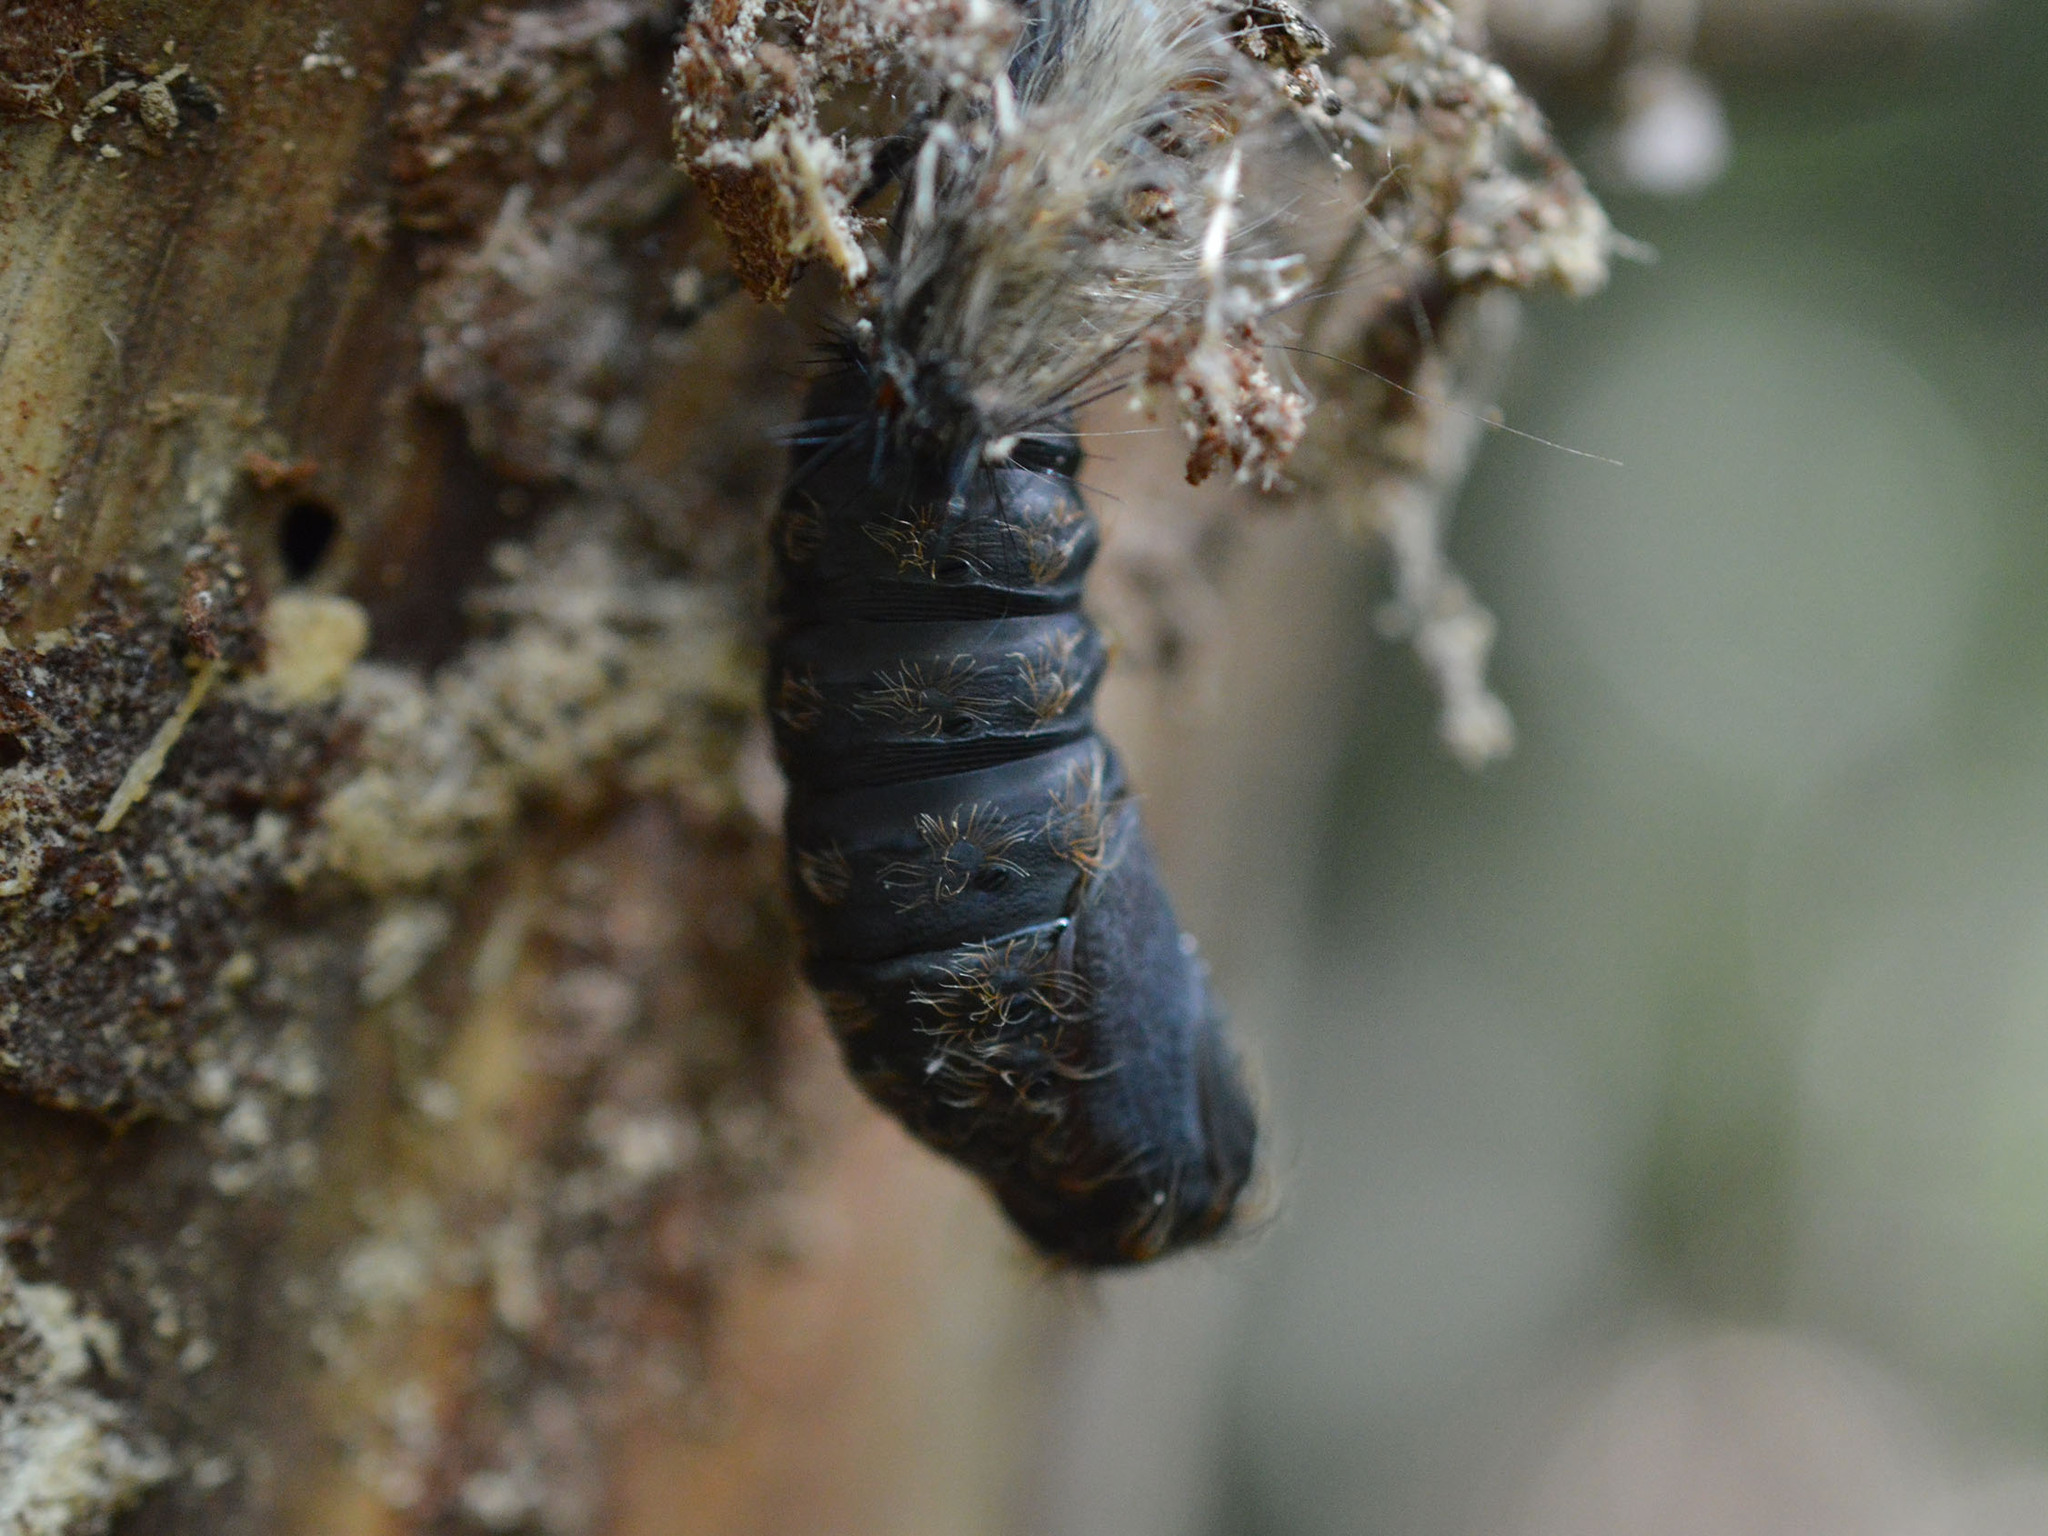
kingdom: Animalia
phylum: Arthropoda
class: Insecta
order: Lepidoptera
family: Erebidae
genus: Lymantria
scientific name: Lymantria dispar
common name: Gypsy moth
